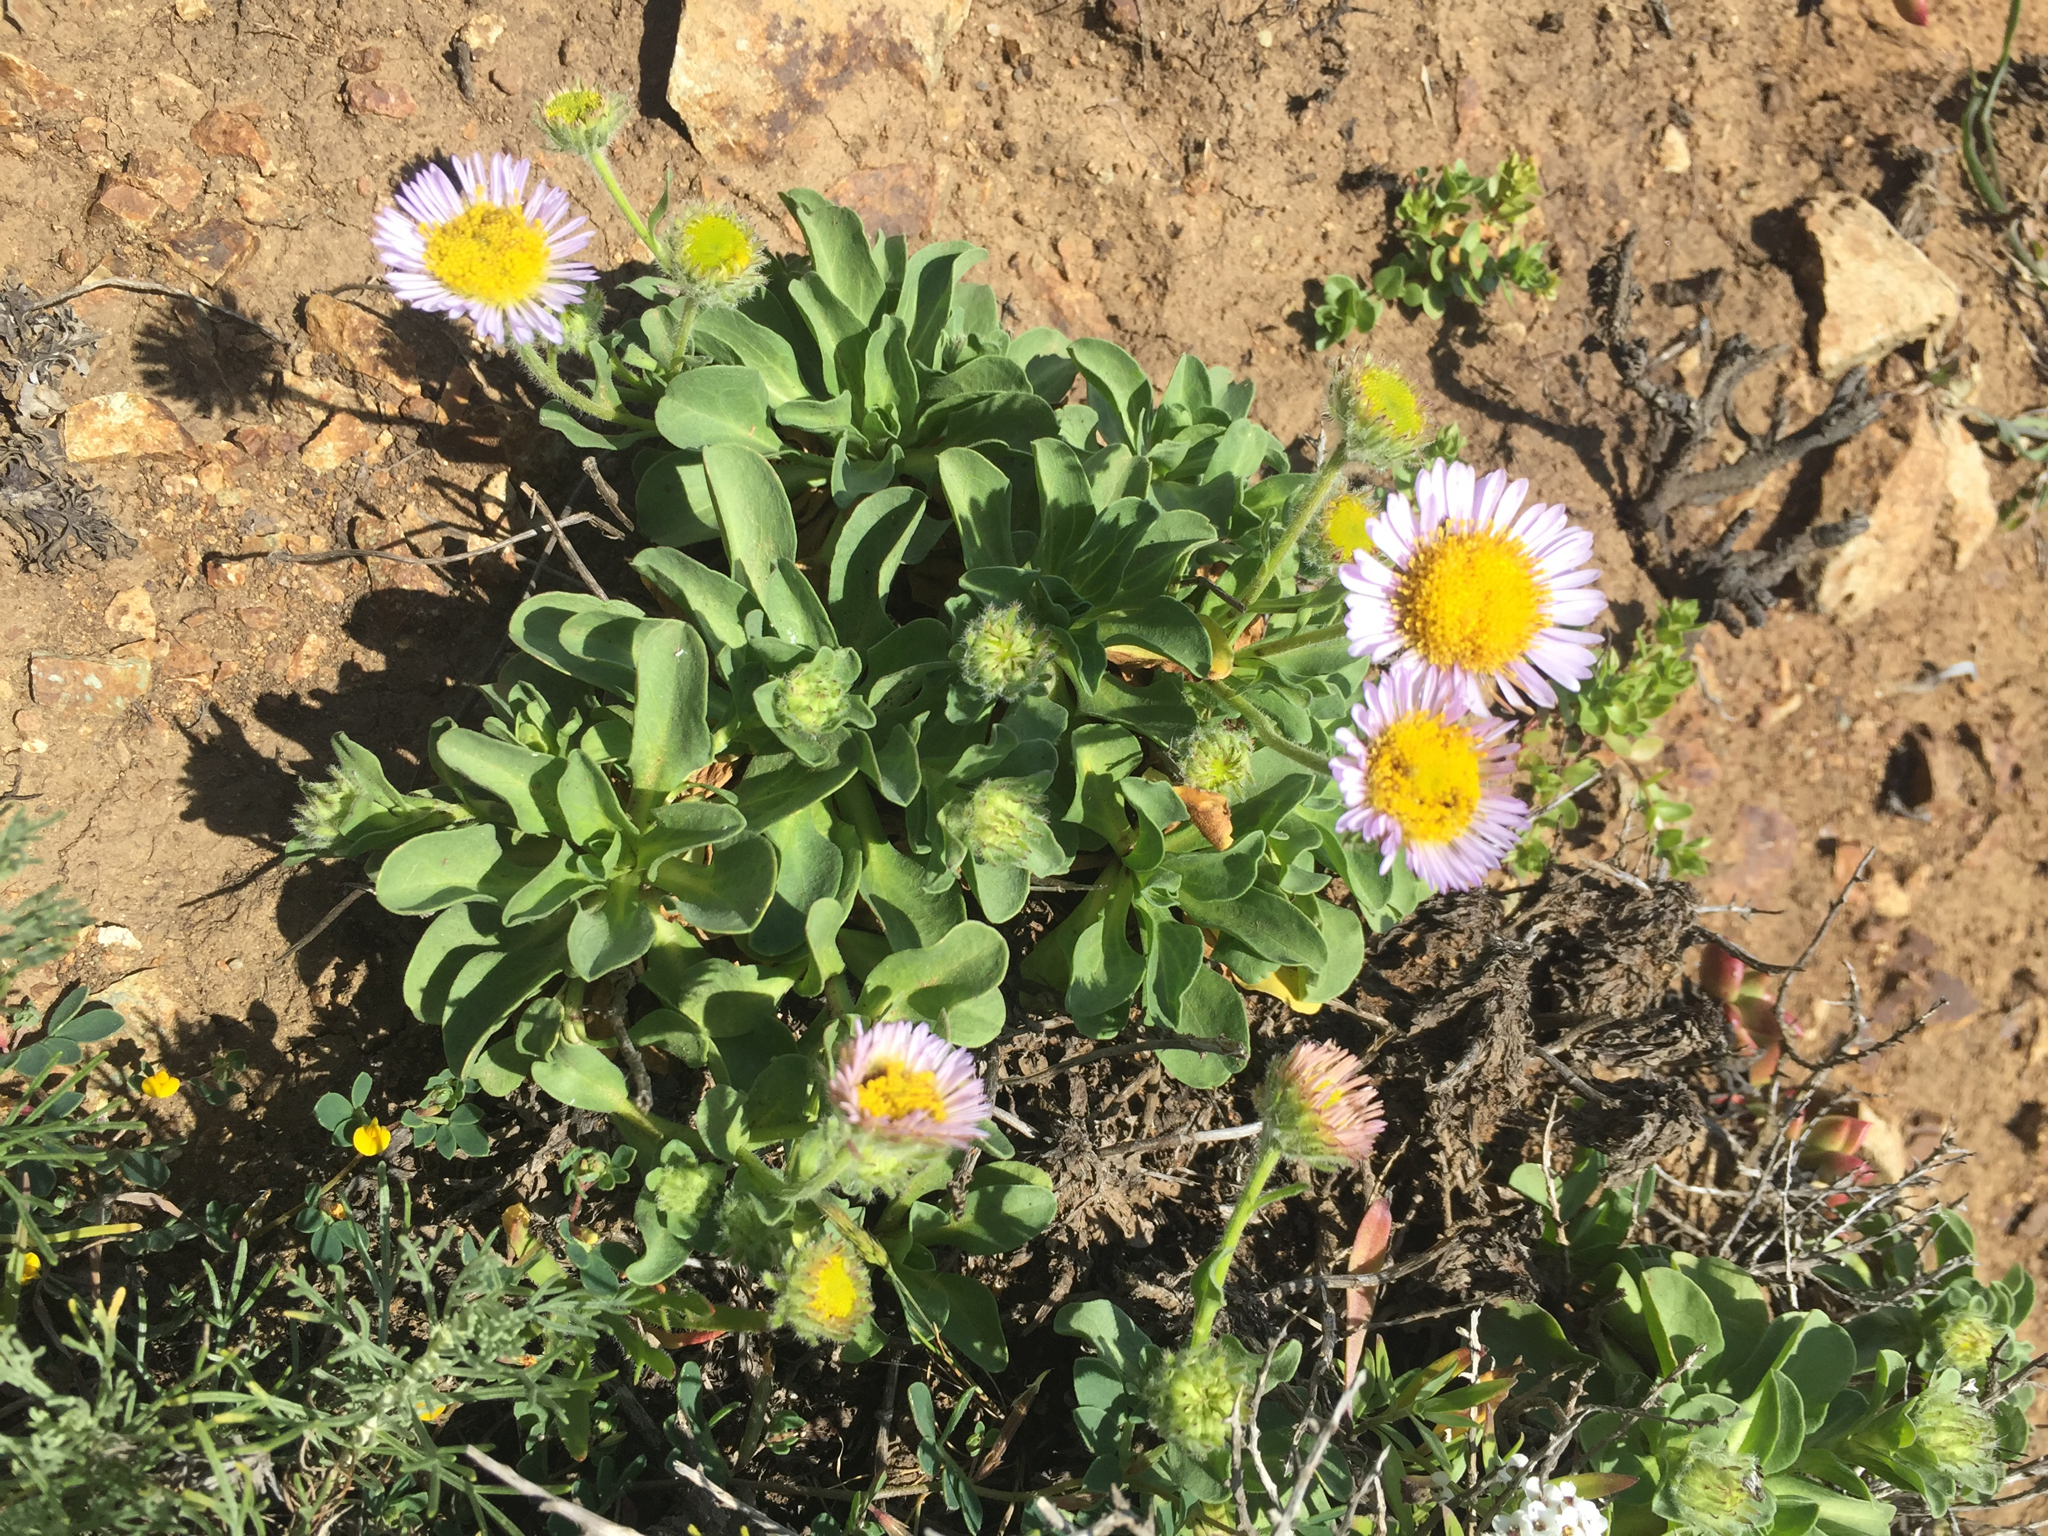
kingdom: Plantae
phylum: Tracheophyta
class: Magnoliopsida
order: Asterales
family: Asteraceae
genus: Erigeron
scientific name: Erigeron glaucus
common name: Seaside daisy
